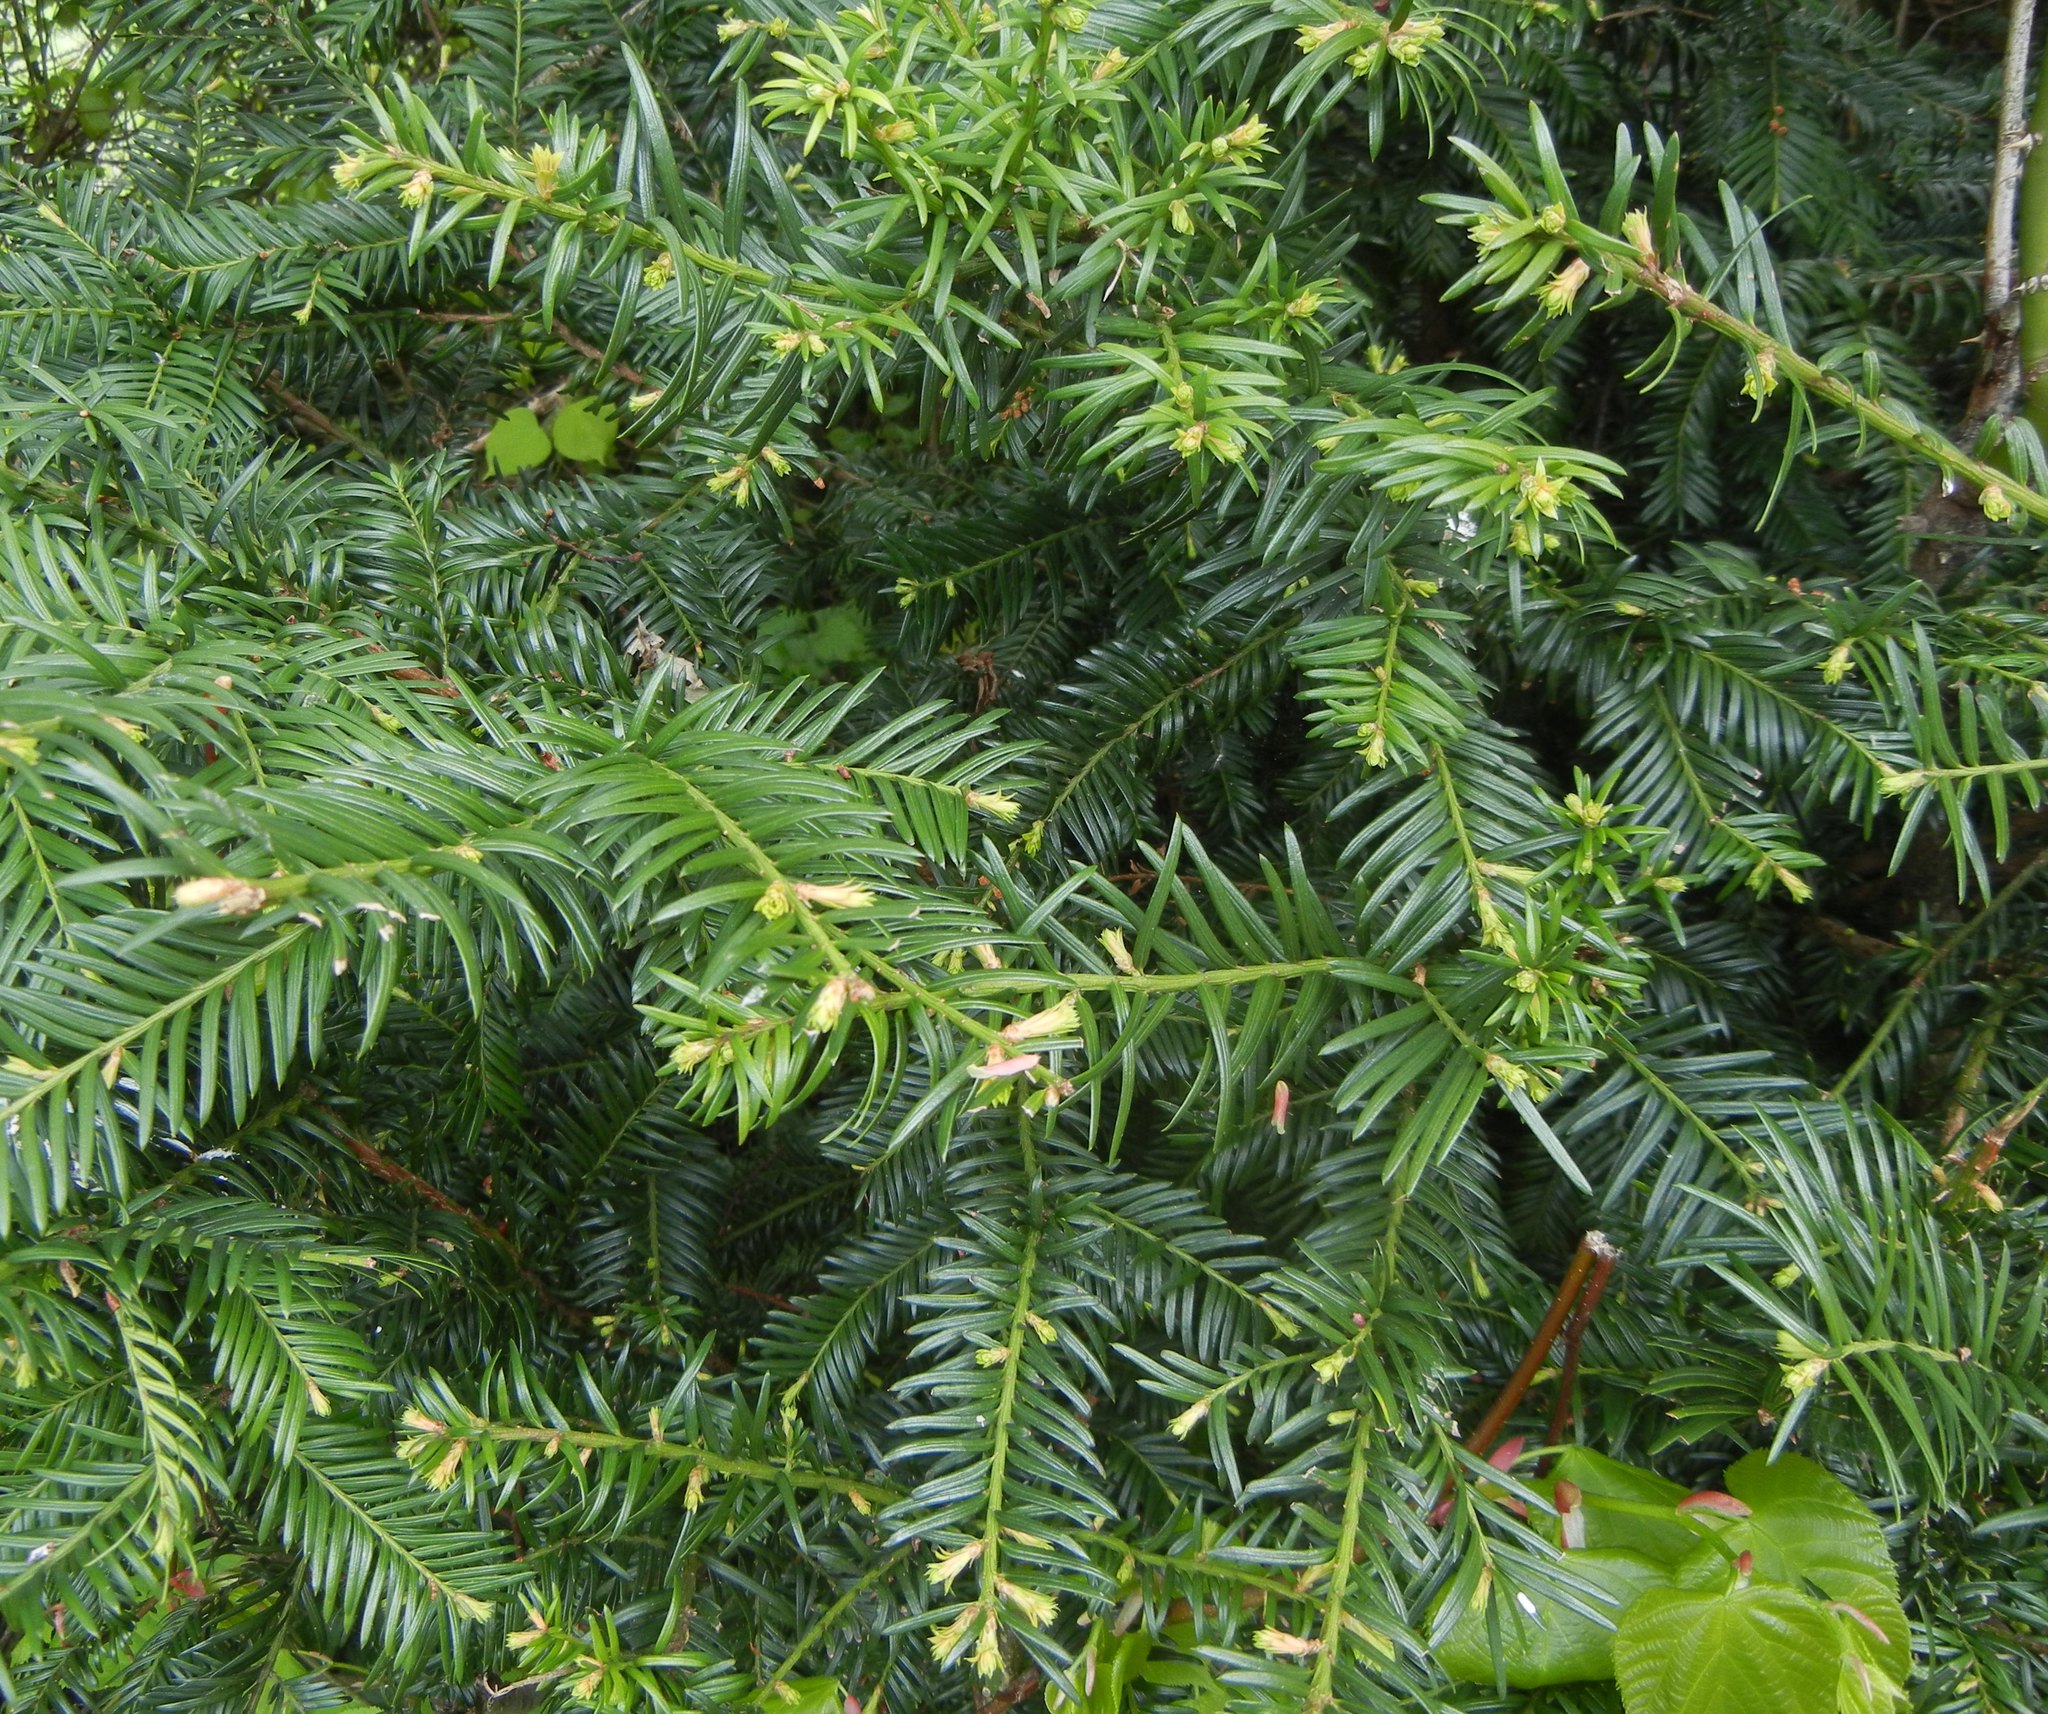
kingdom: Plantae
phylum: Tracheophyta
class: Pinopsida
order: Pinales
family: Taxaceae
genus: Taxus
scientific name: Taxus baccata
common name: Yew
